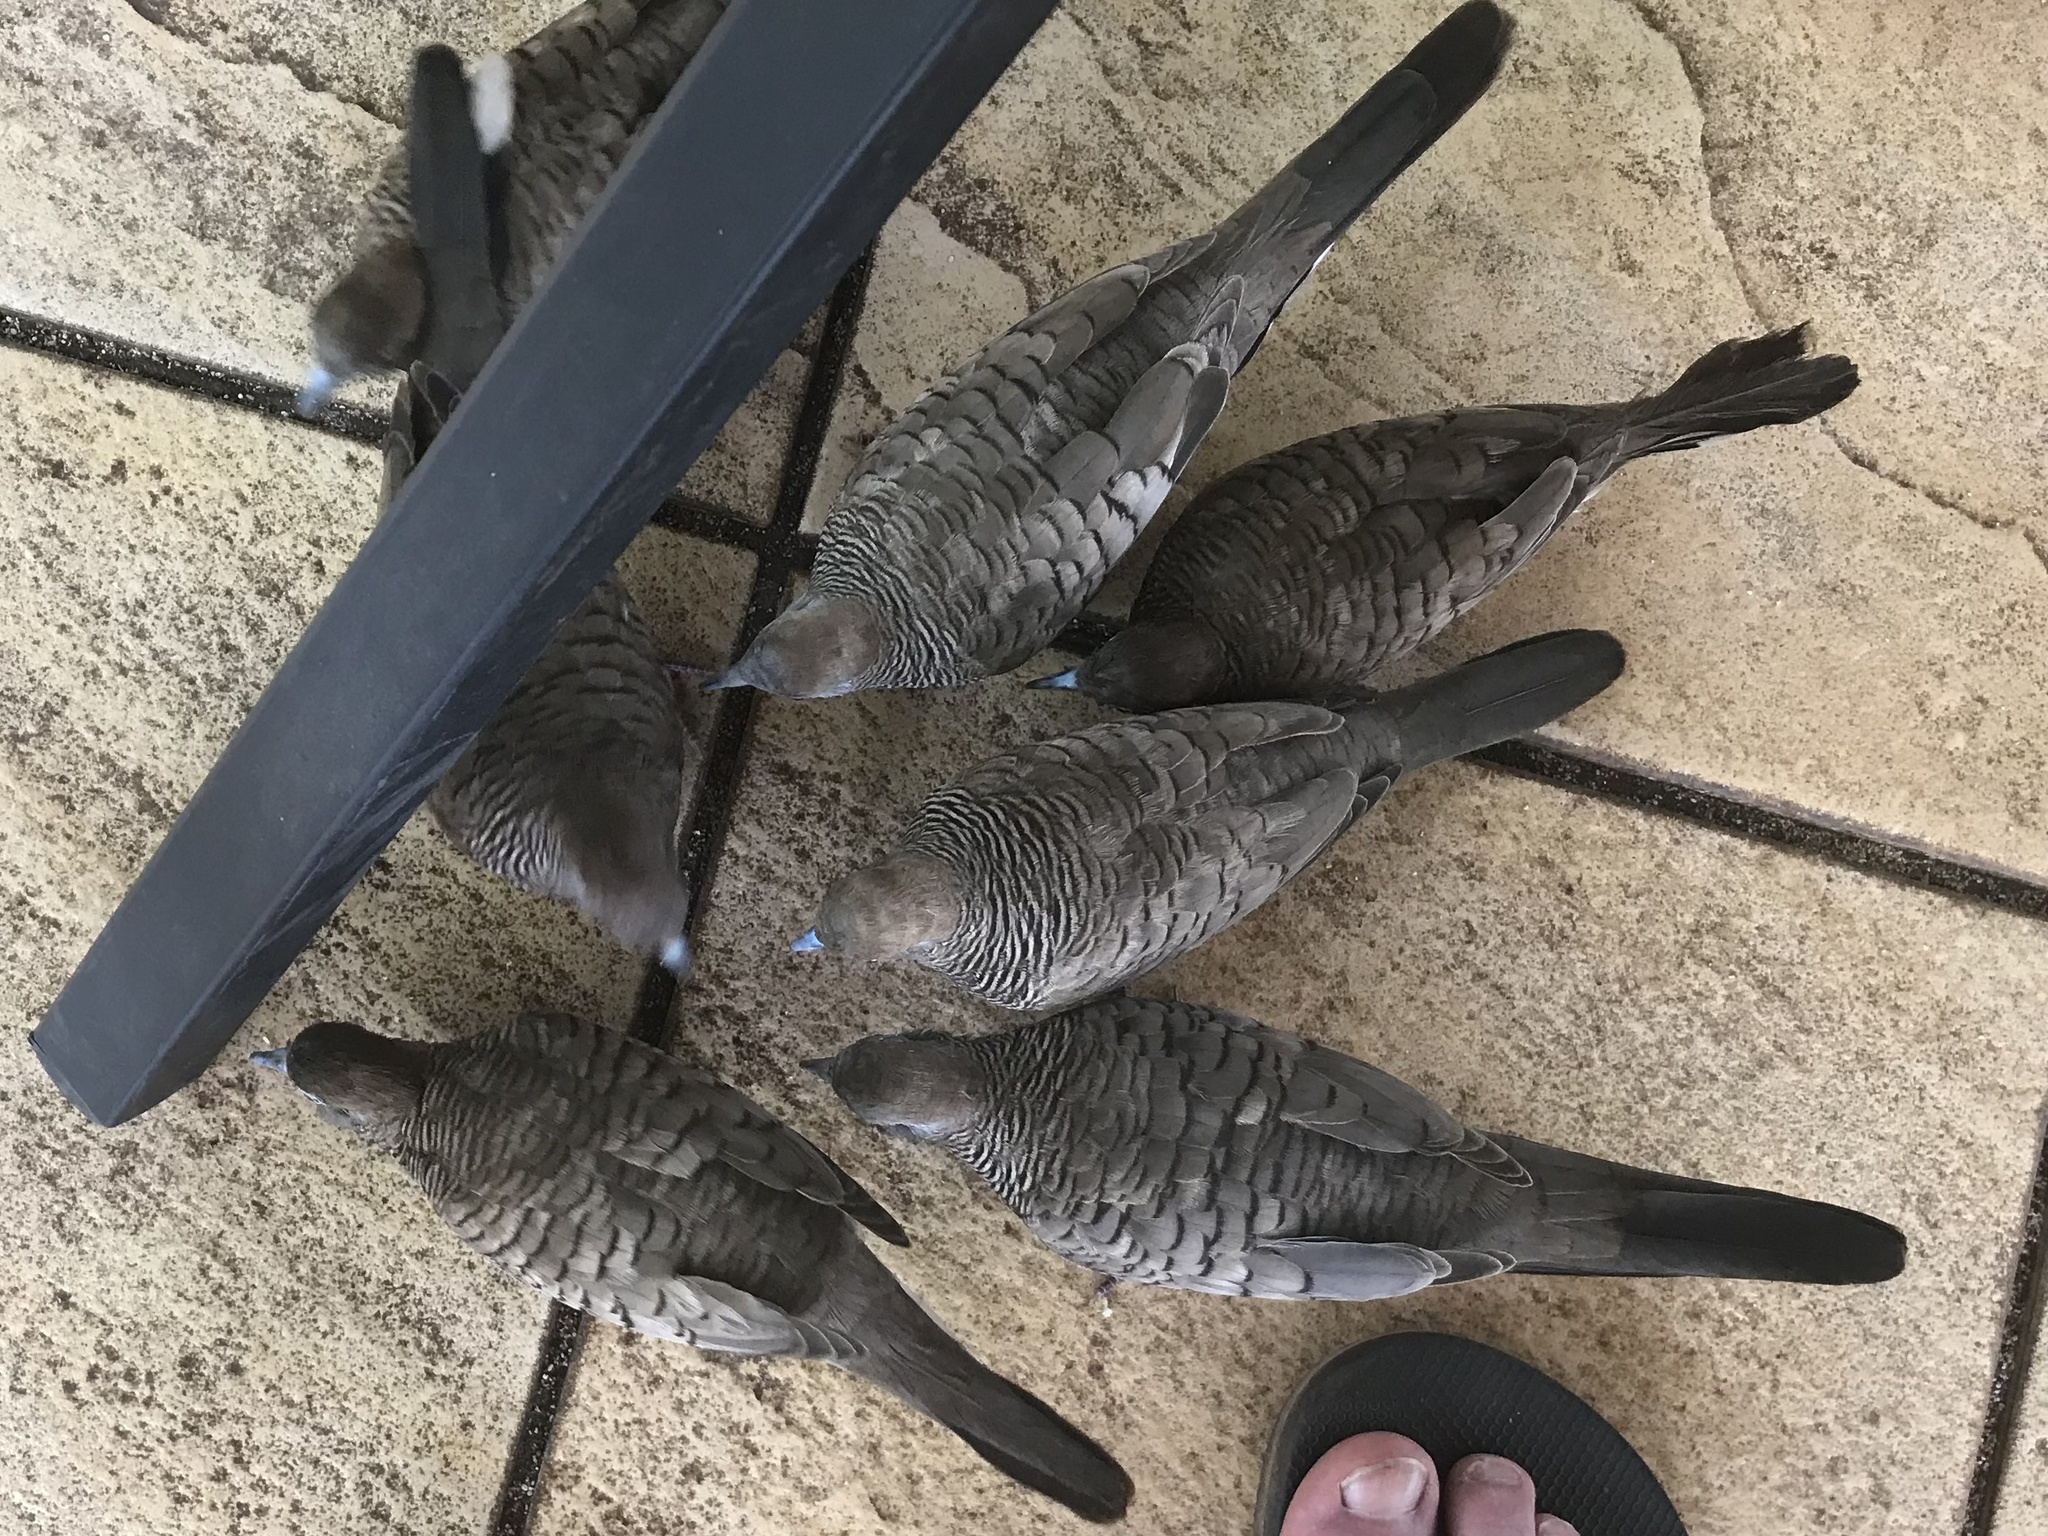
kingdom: Animalia
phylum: Chordata
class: Aves
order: Columbiformes
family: Columbidae
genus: Geopelia
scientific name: Geopelia striata
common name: Zebra dove
